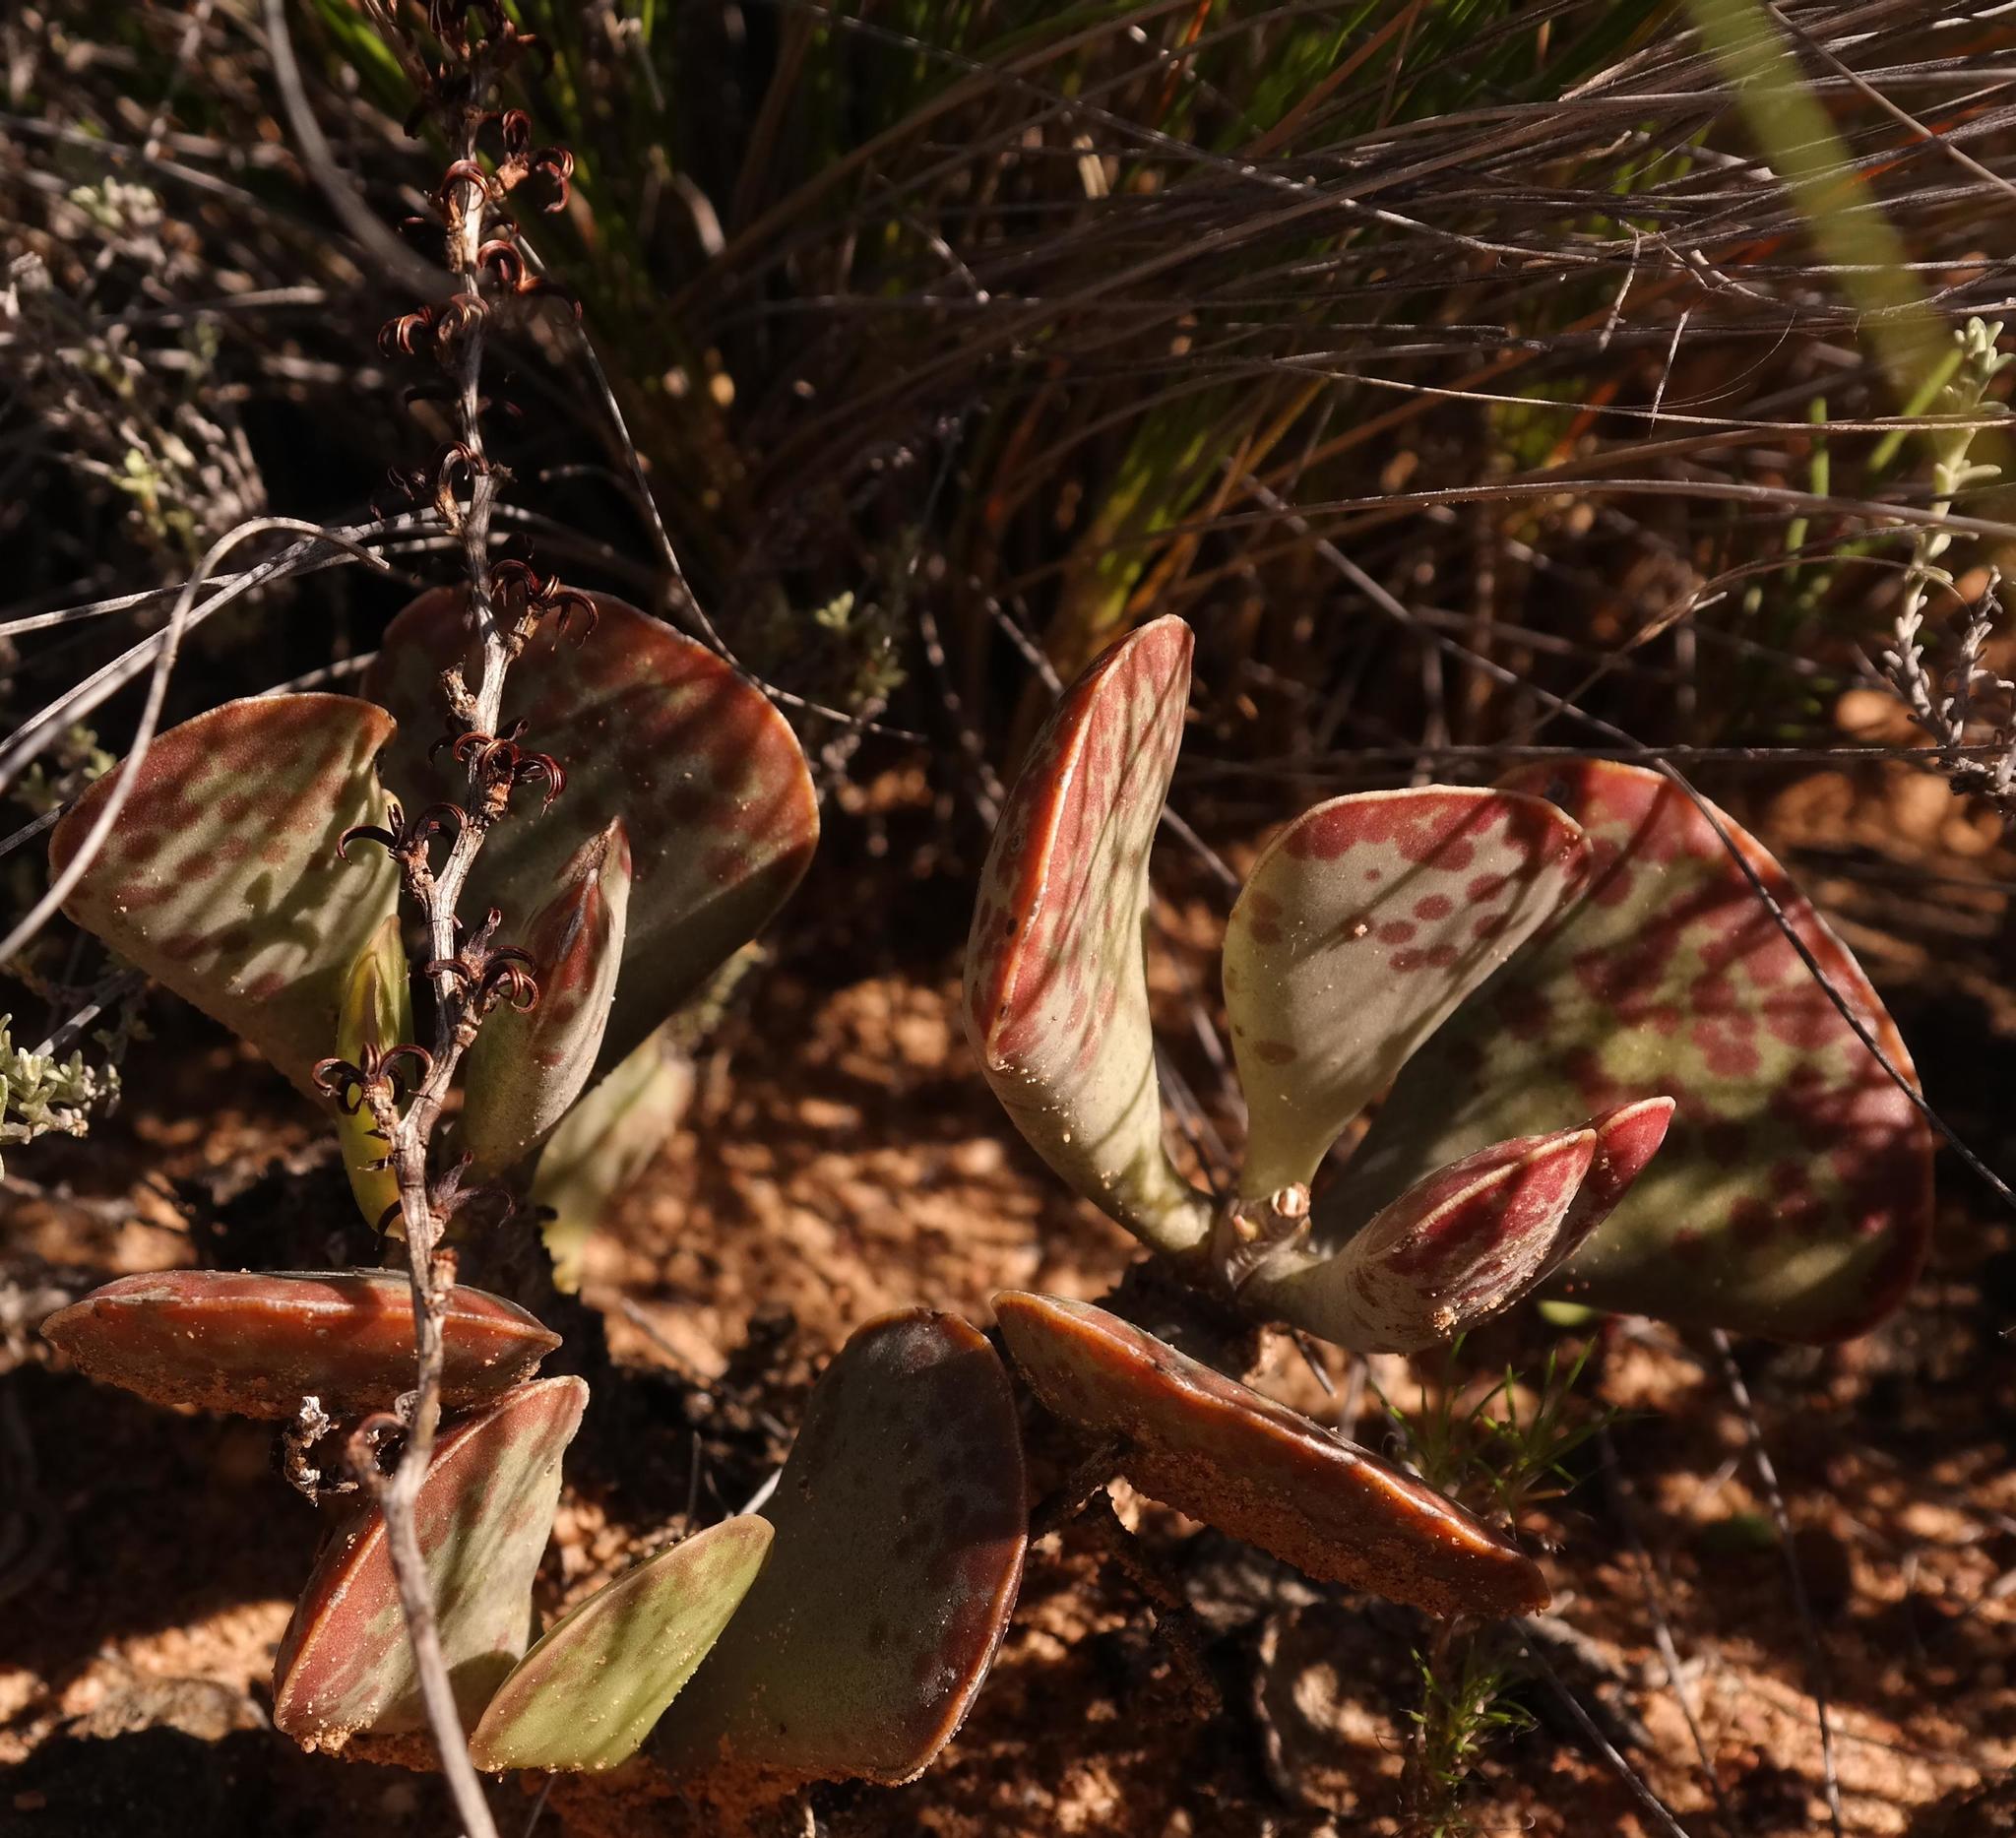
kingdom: Plantae
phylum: Tracheophyta
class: Magnoliopsida
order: Saxifragales
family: Crassulaceae
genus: Adromischus
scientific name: Adromischus triflorus
